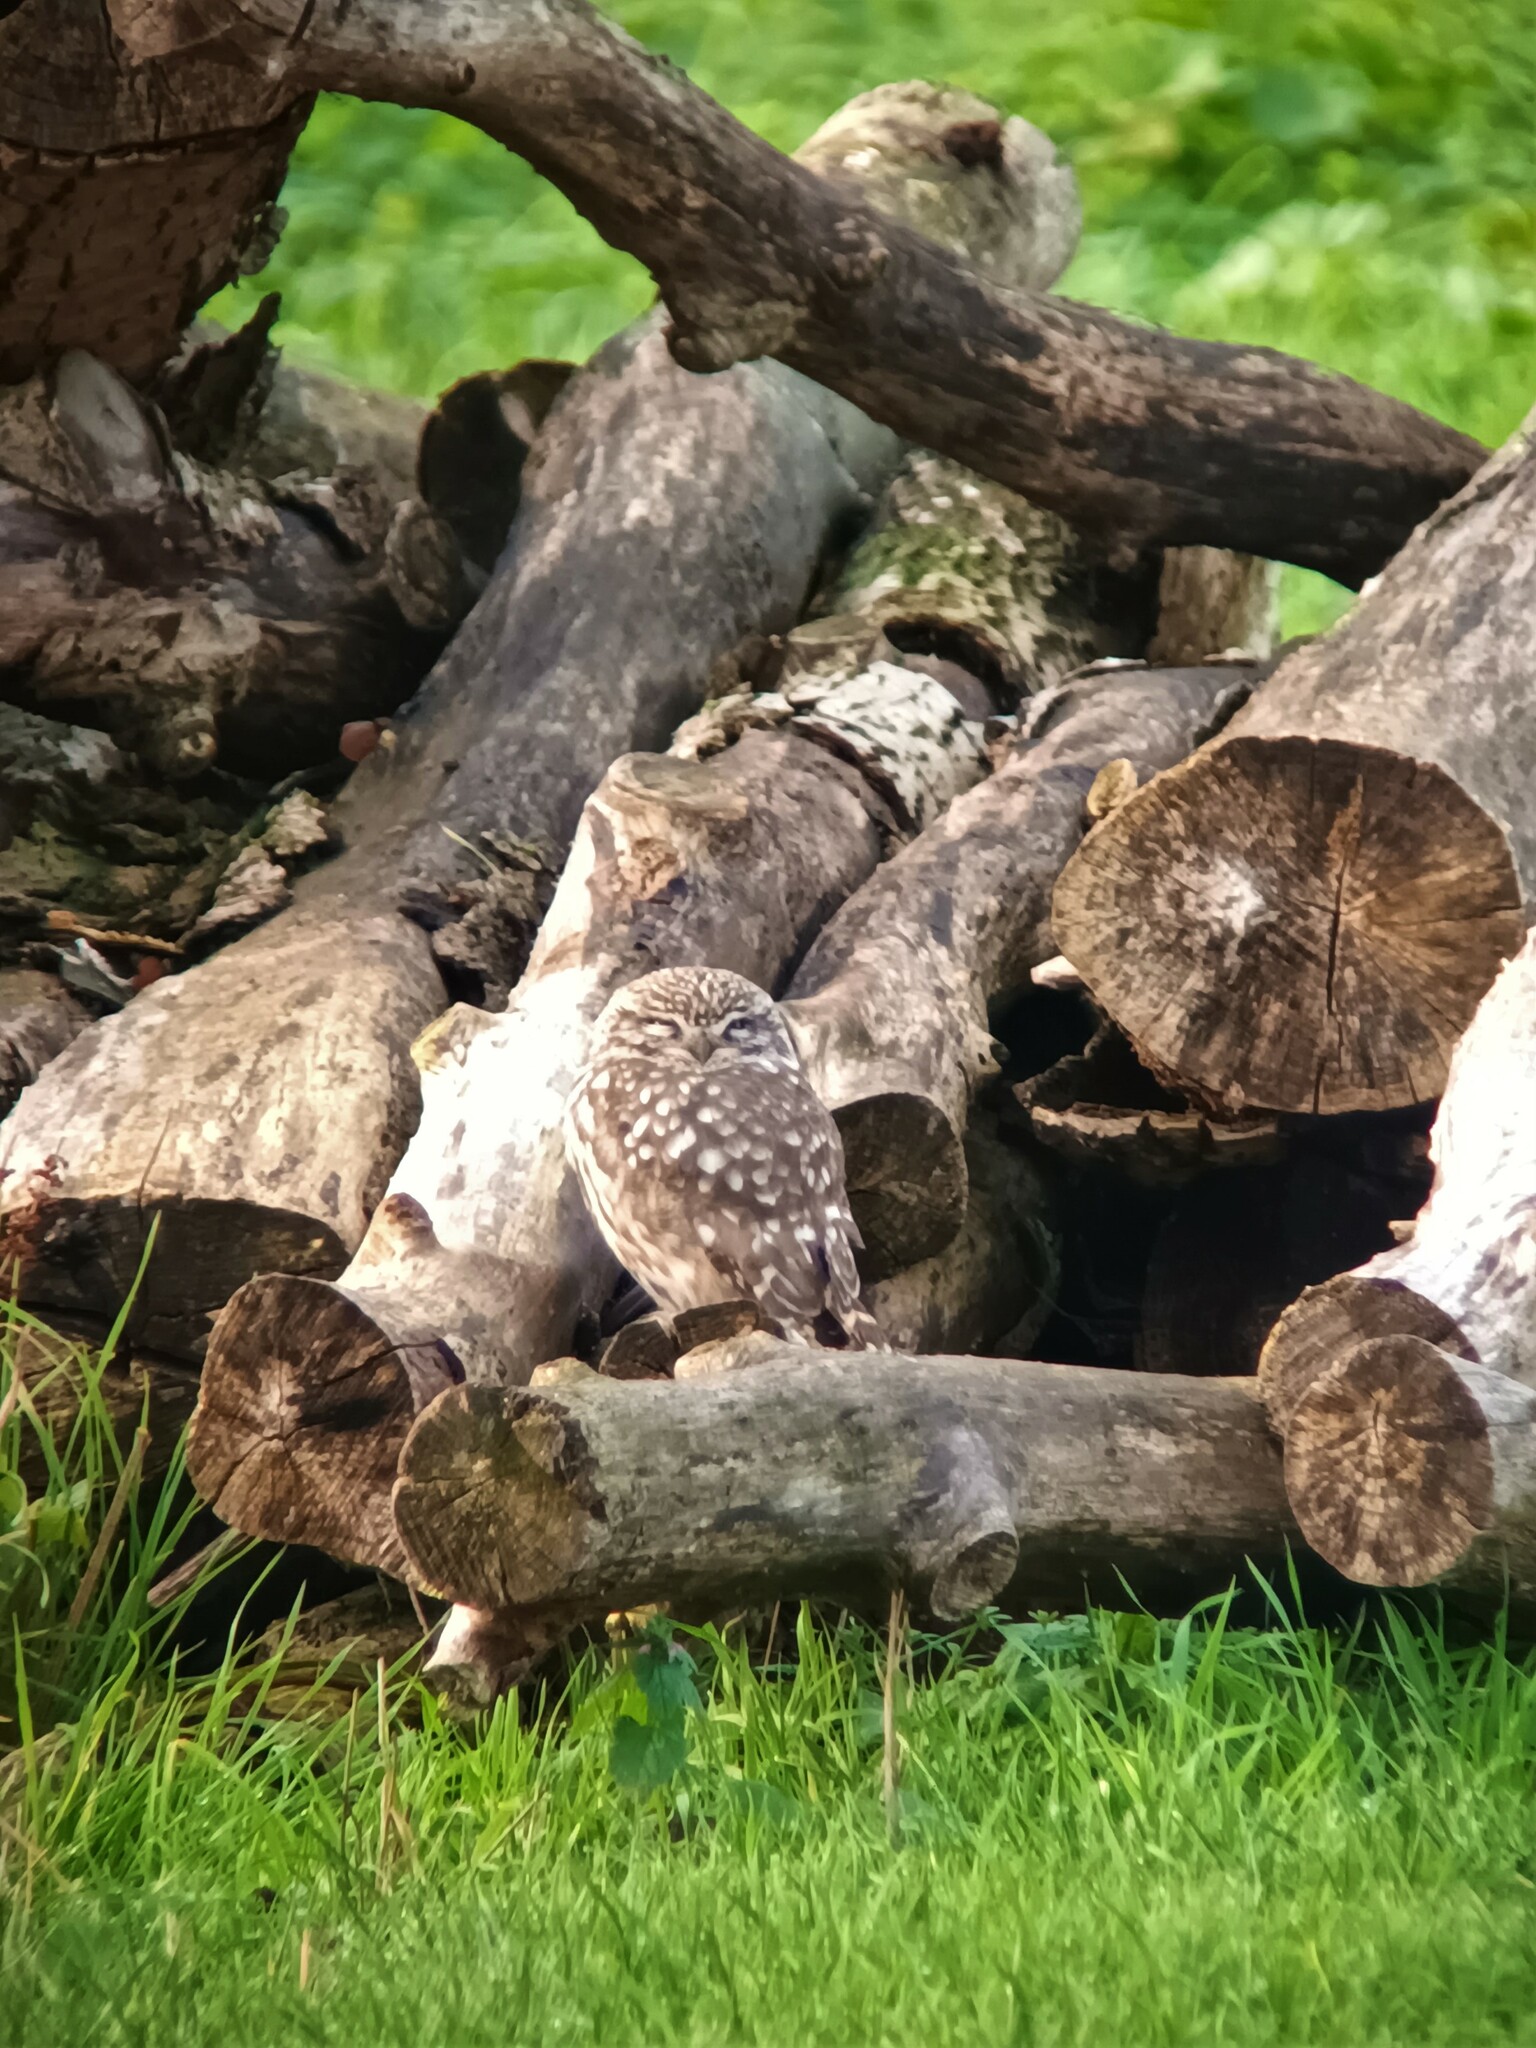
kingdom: Animalia
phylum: Chordata
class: Aves
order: Strigiformes
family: Strigidae
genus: Athene
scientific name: Athene noctua
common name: Little owl
